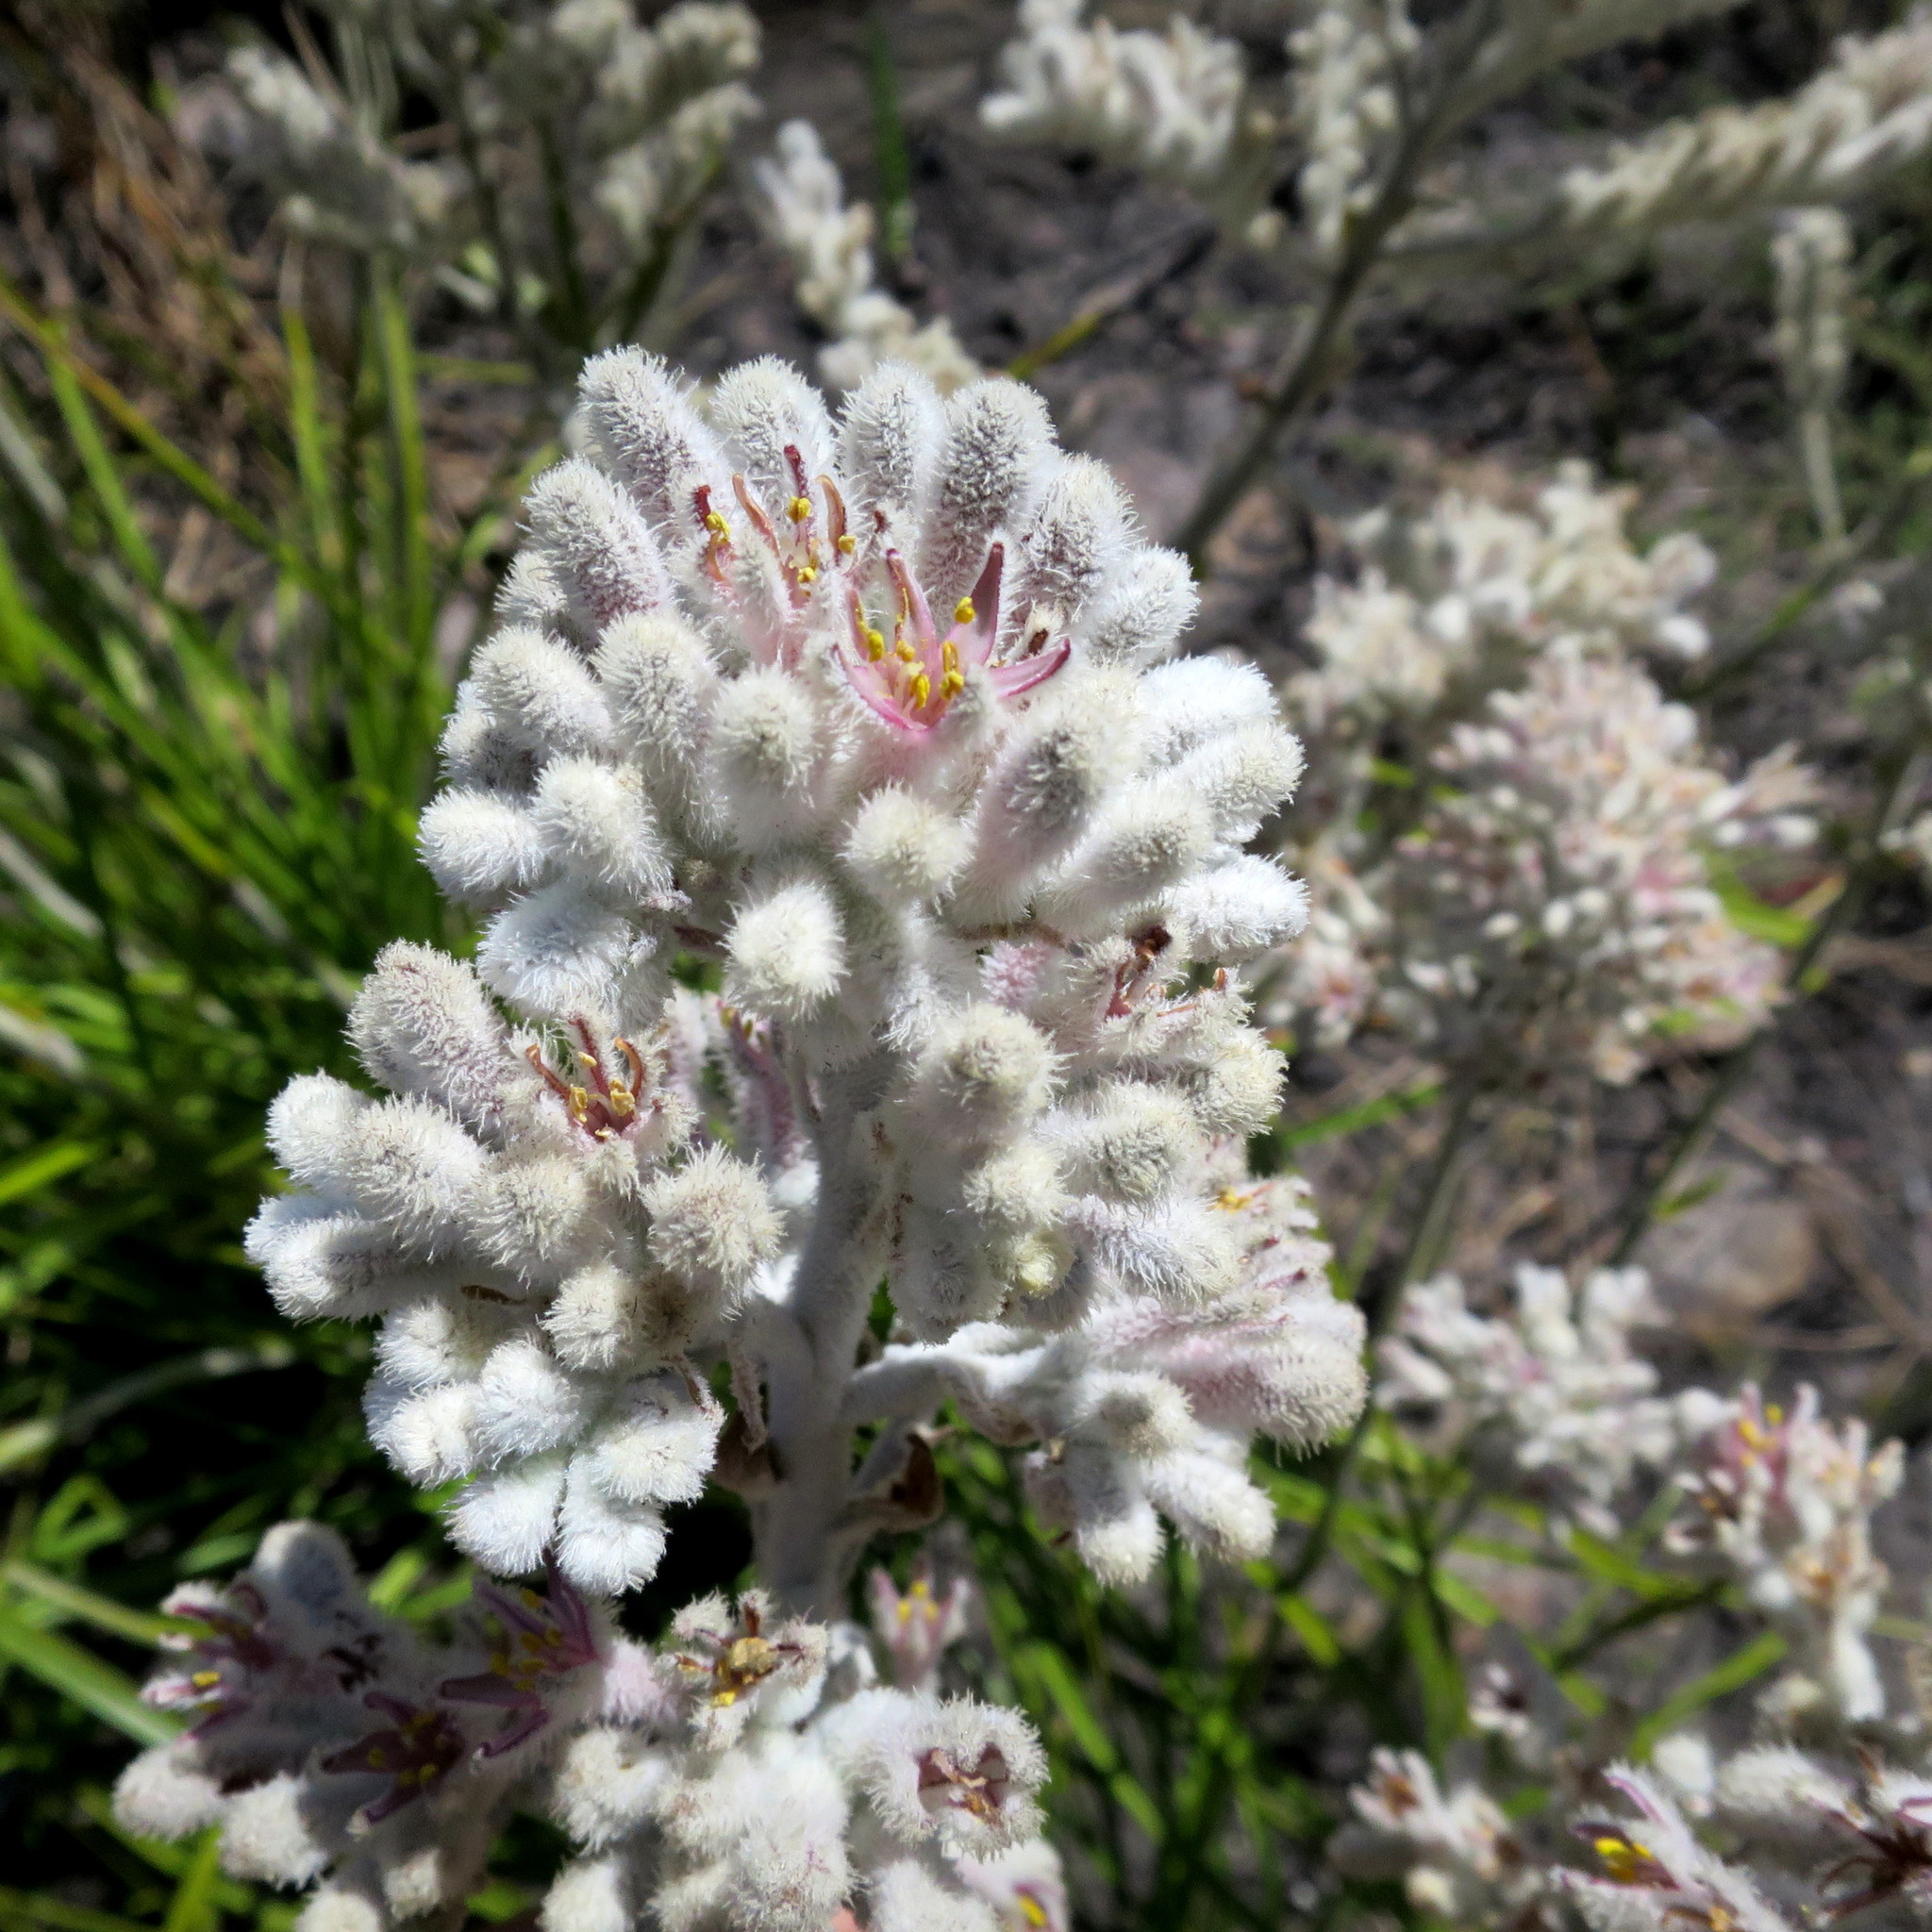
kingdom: Plantae
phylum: Tracheophyta
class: Liliopsida
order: Asparagales
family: Lanariaceae
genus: Lanaria
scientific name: Lanaria lanata
